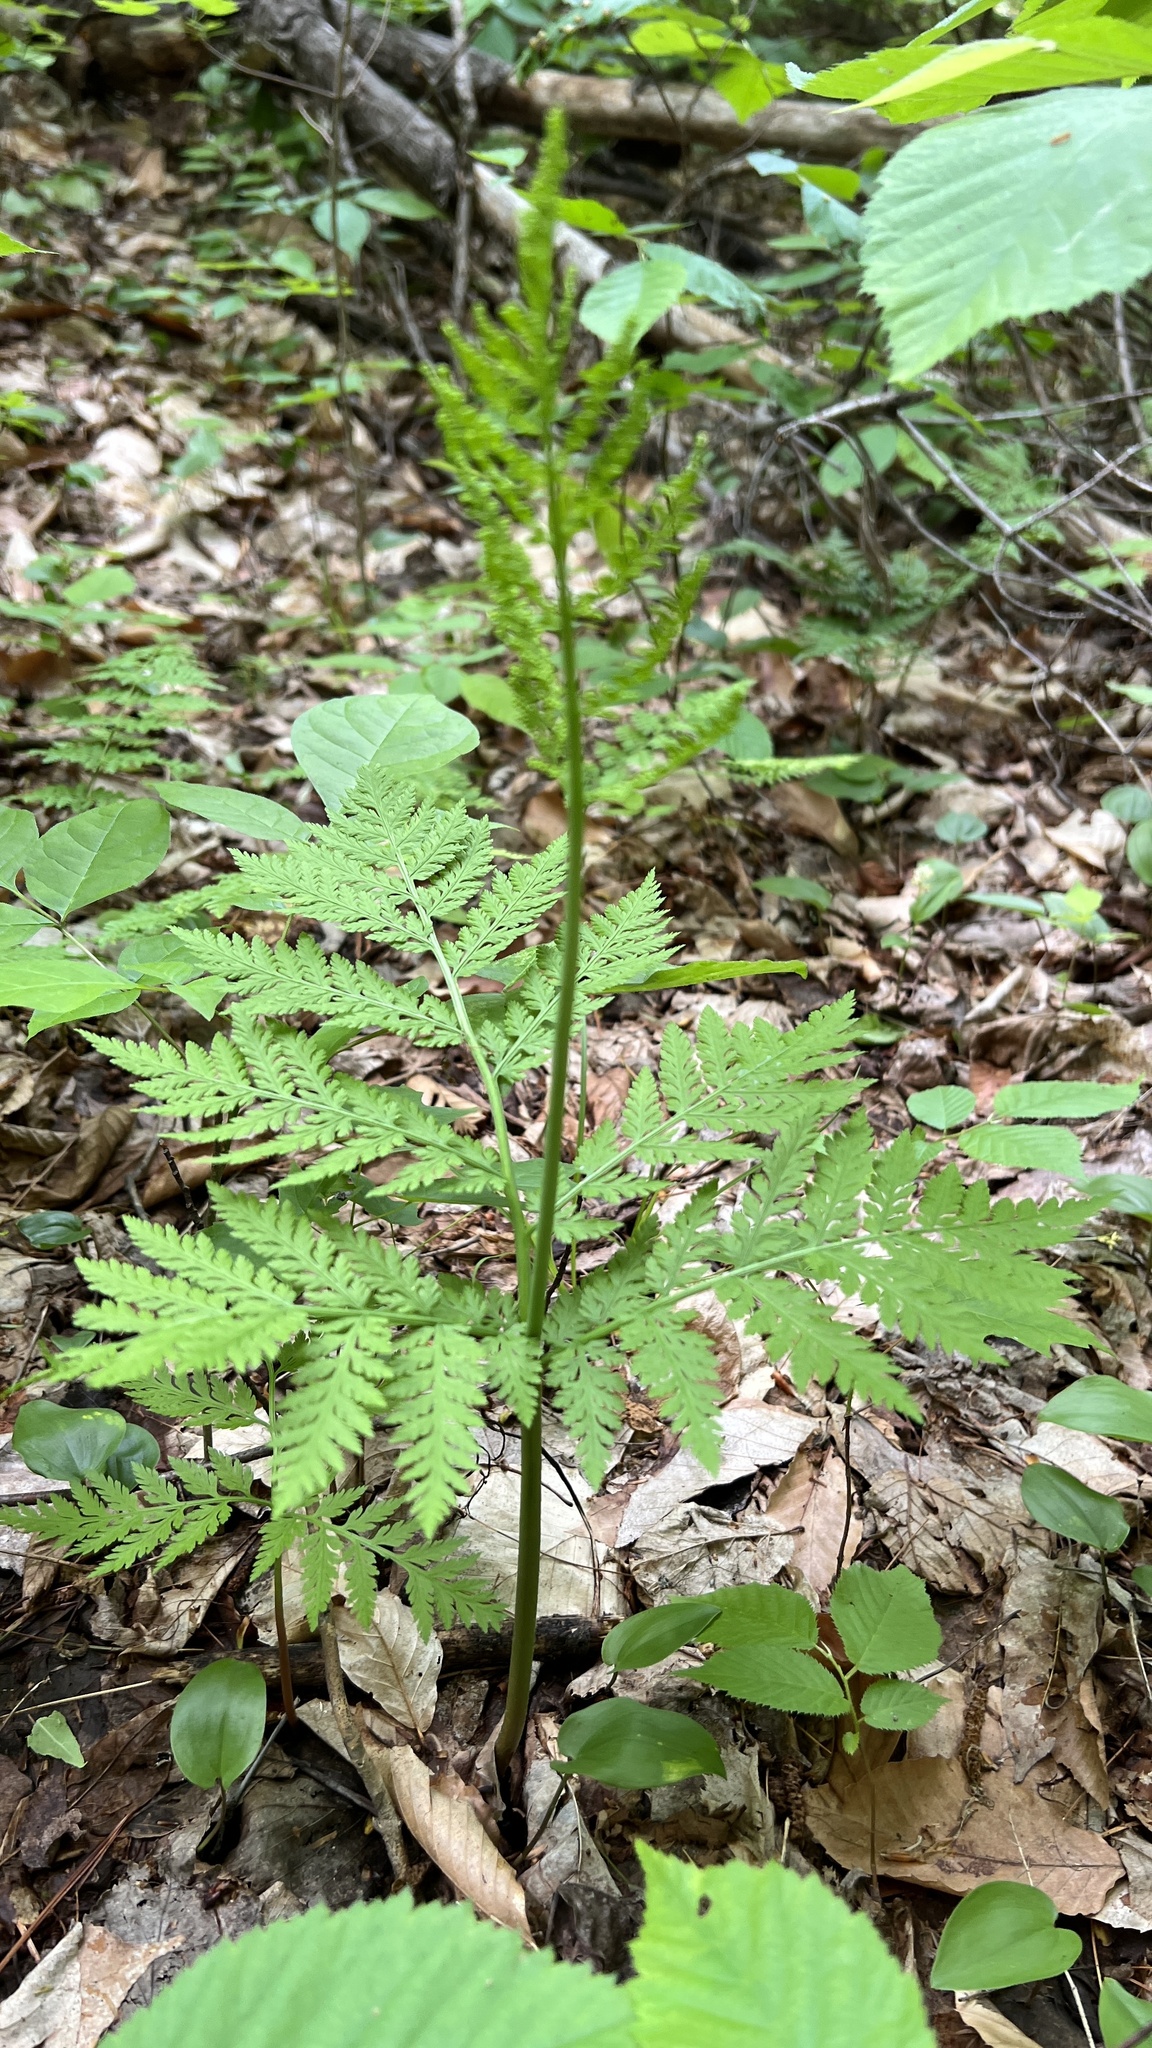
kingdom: Plantae
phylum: Tracheophyta
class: Polypodiopsida
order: Ophioglossales
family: Ophioglossaceae
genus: Botrypus
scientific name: Botrypus virginianus
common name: Common grapefern
